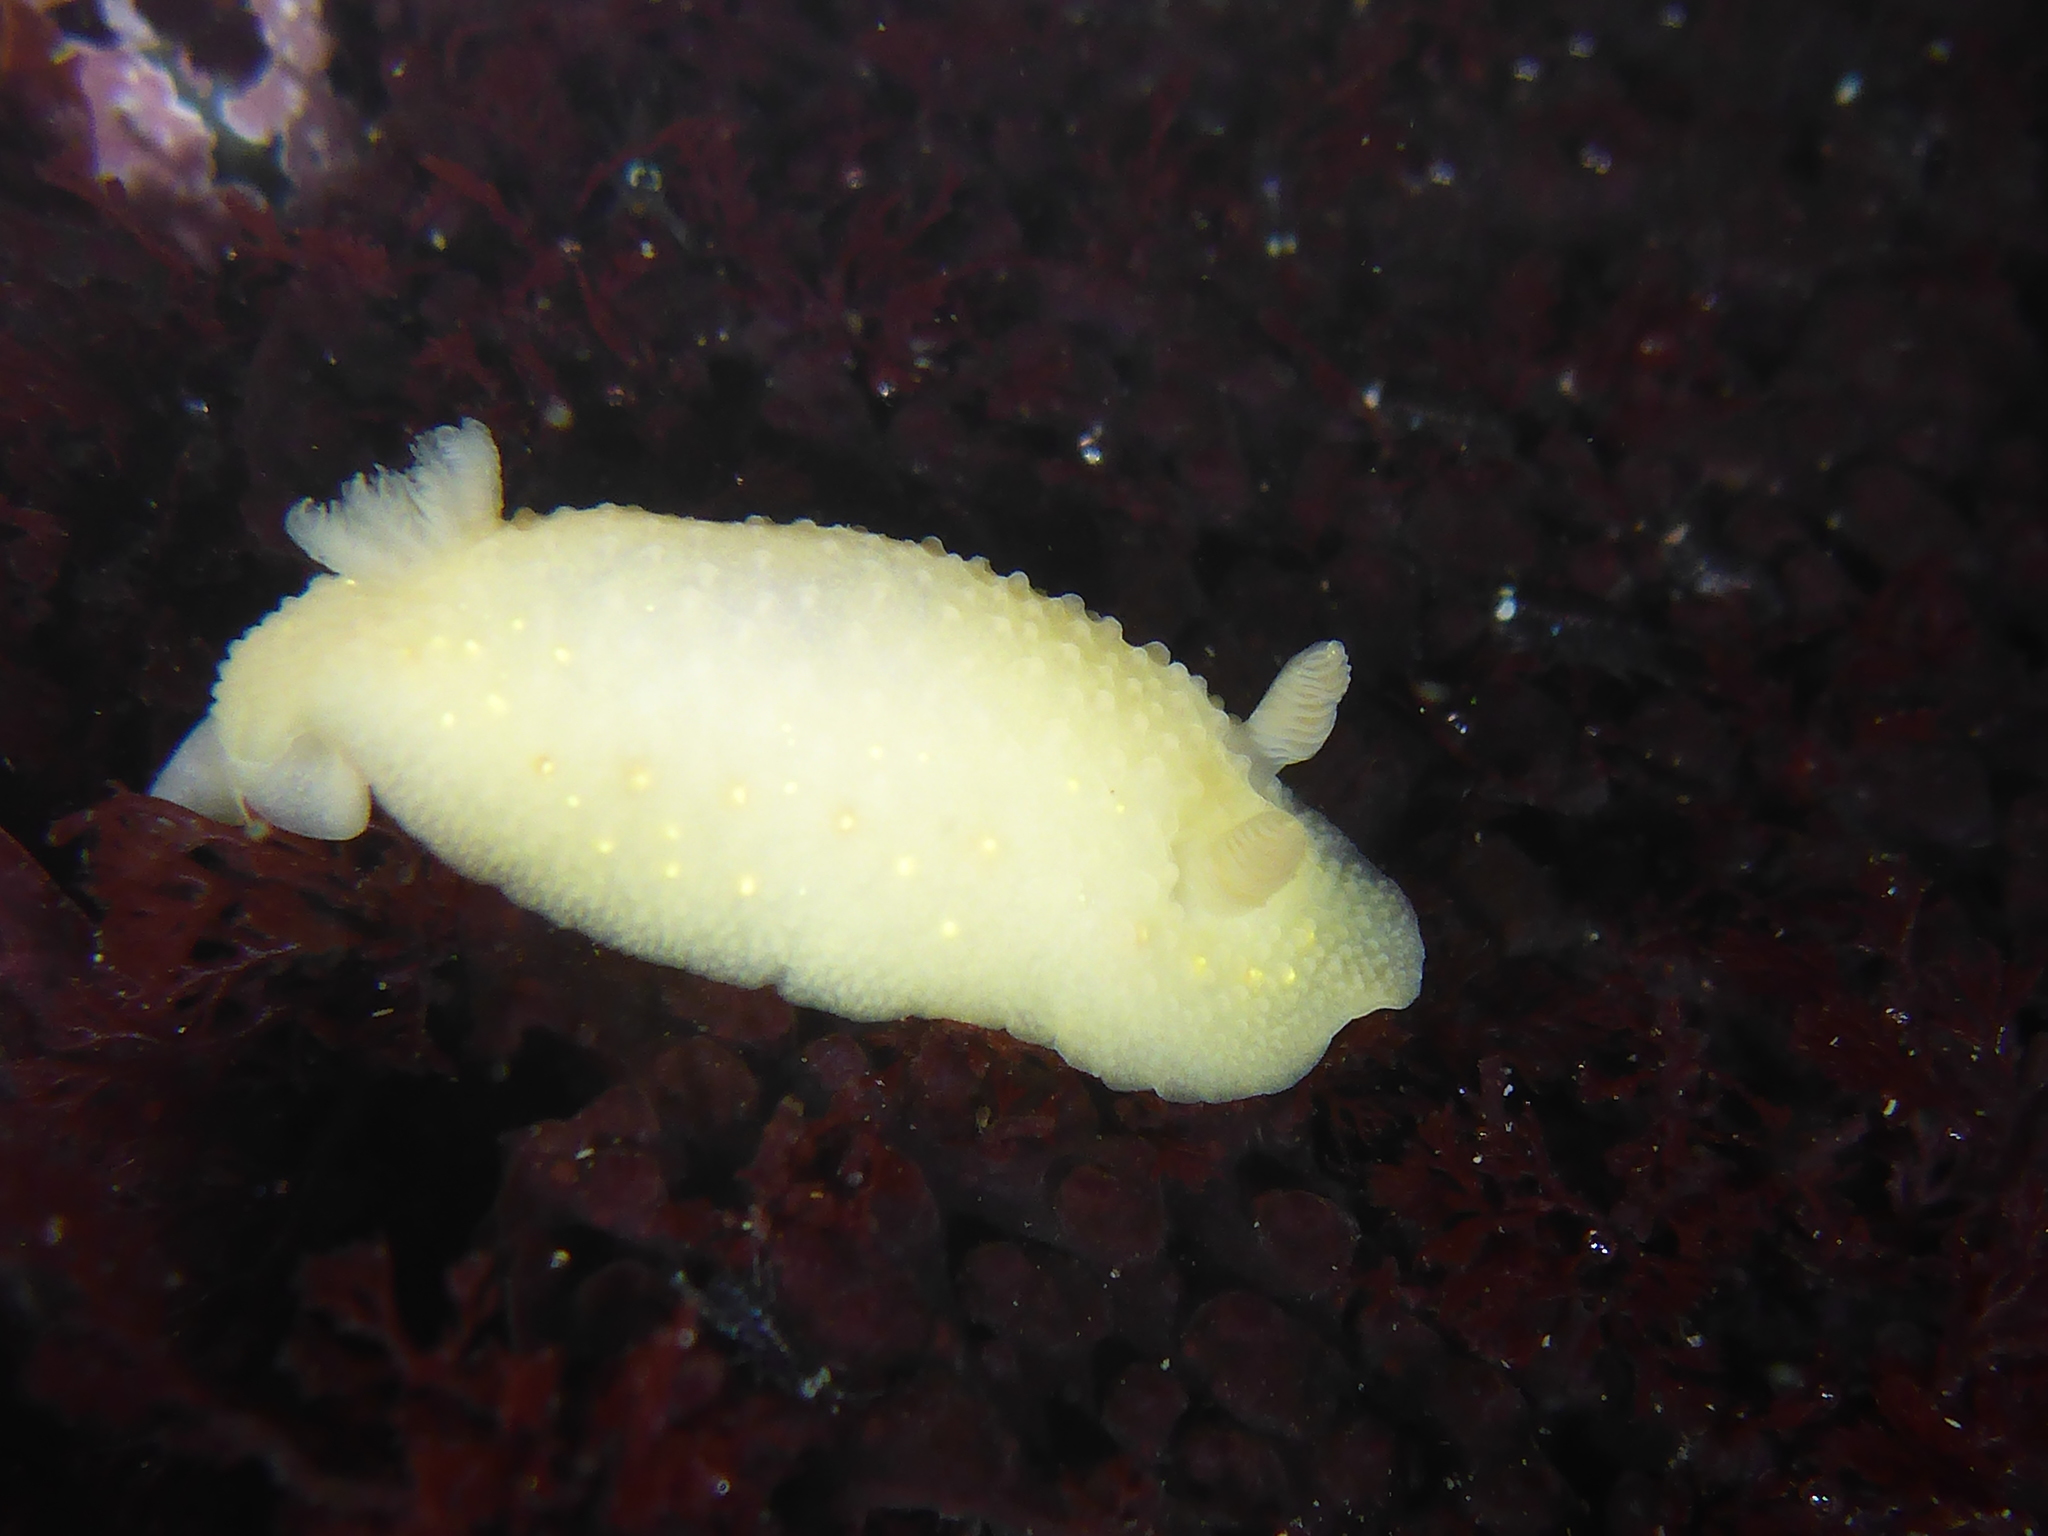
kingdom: Animalia
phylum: Mollusca
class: Gastropoda
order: Nudibranchia
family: Cadlinidae
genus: Cadlina
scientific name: Cadlina modesta
